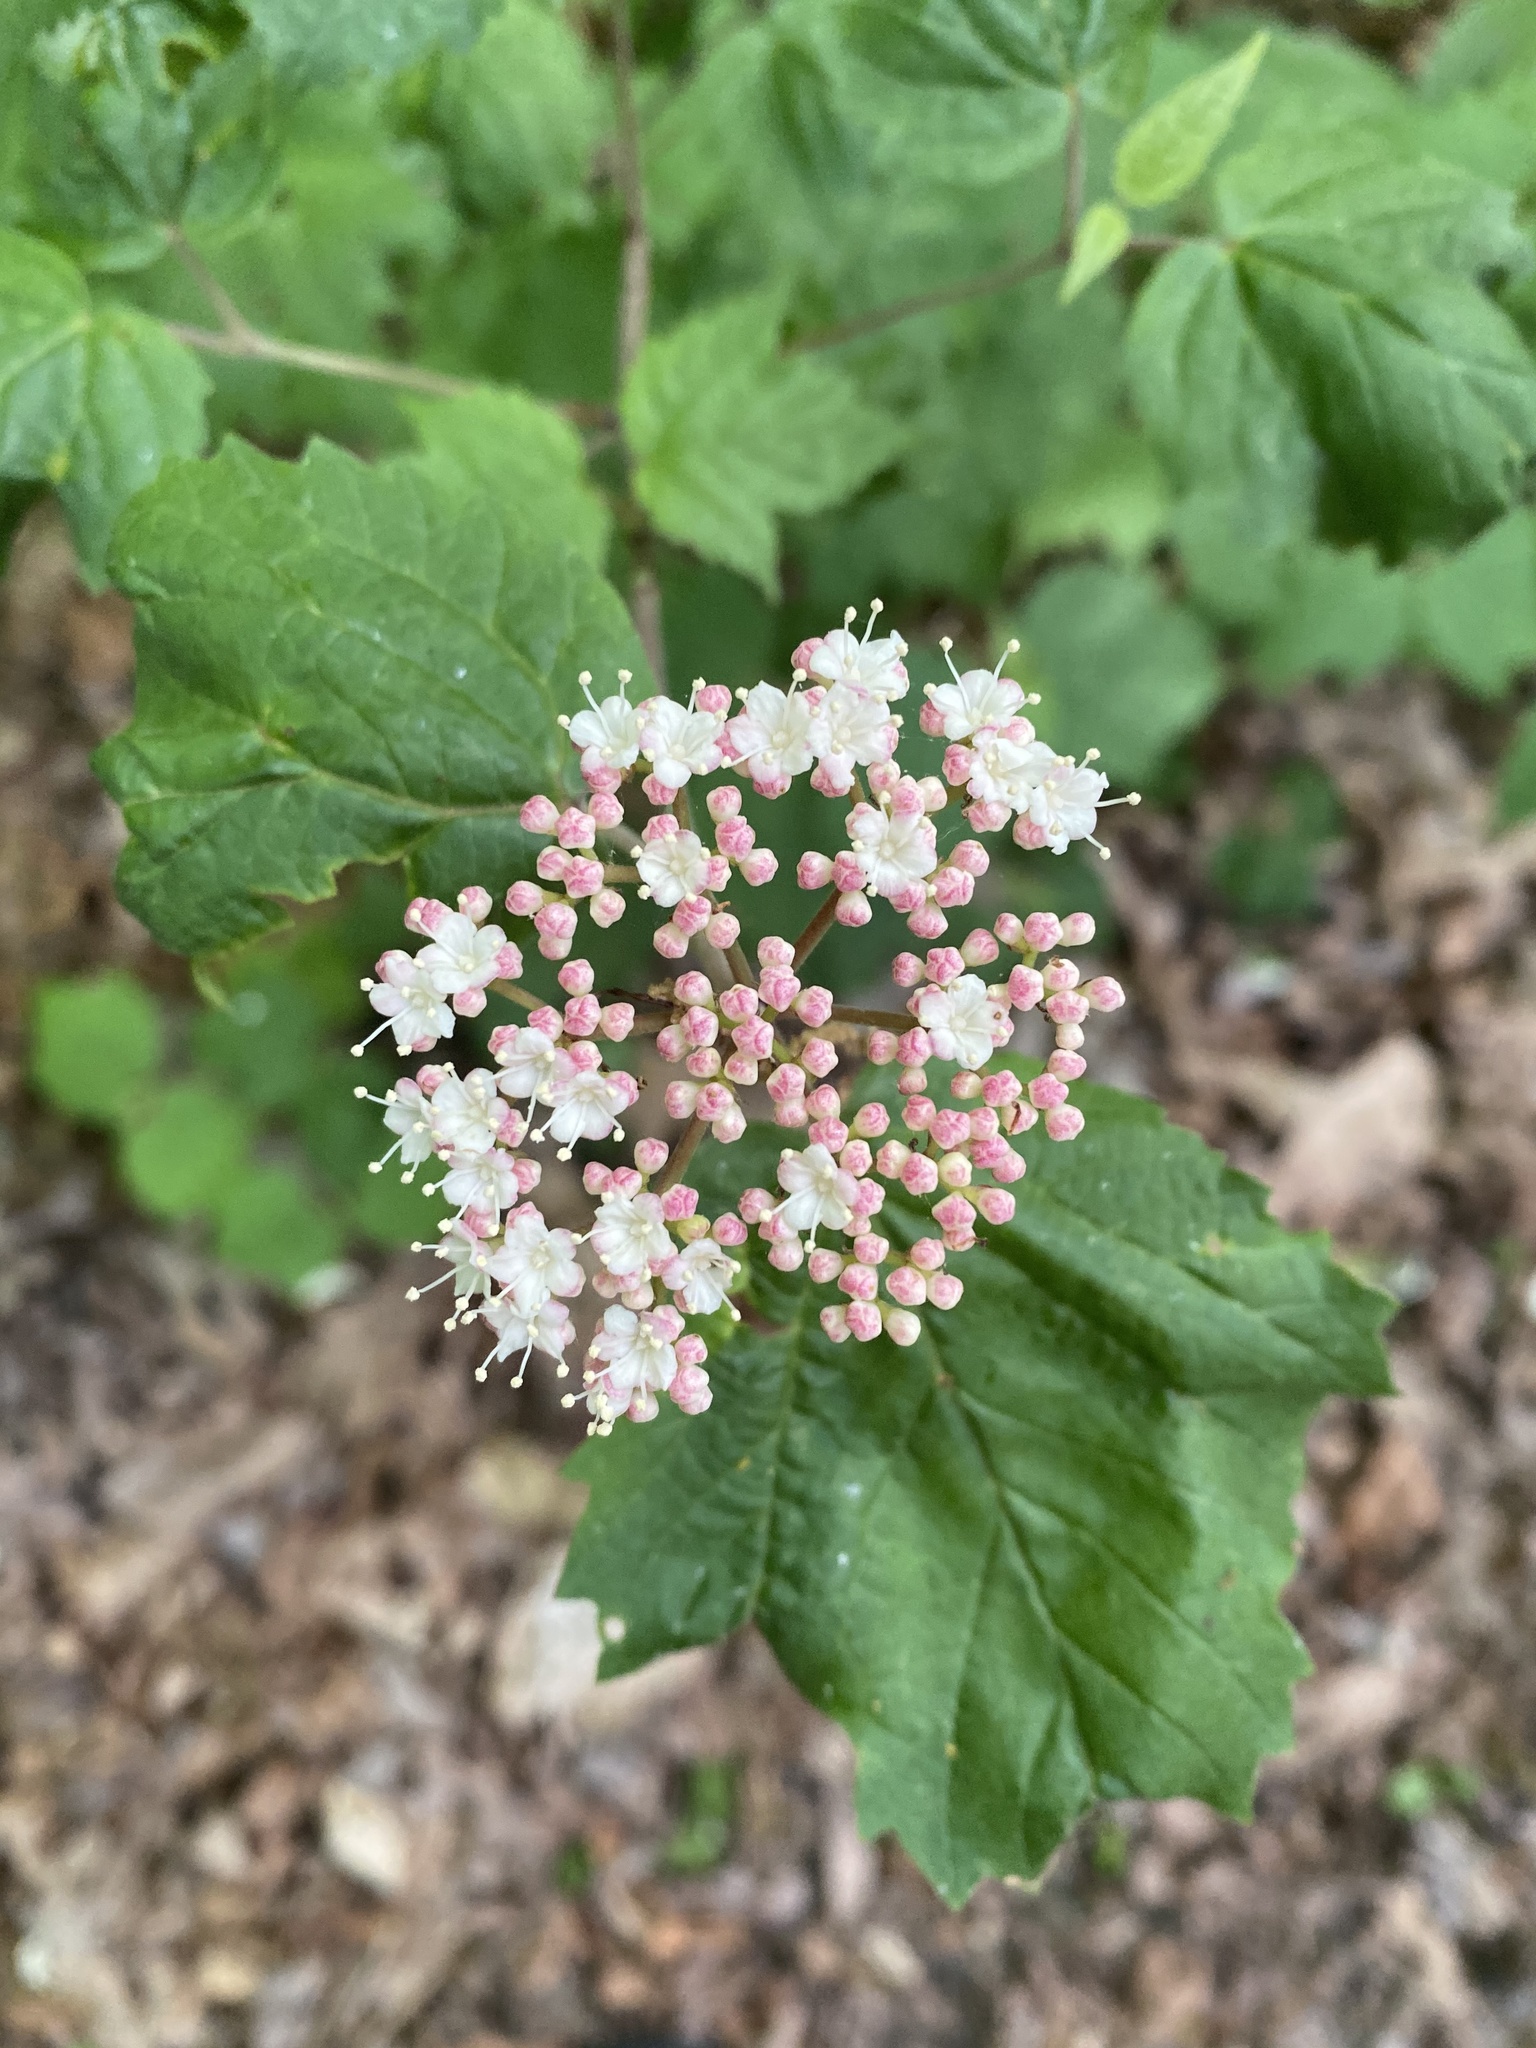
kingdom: Plantae
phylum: Tracheophyta
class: Magnoliopsida
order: Dipsacales
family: Viburnaceae
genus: Viburnum
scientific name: Viburnum acerifolium
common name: Dockmackie
